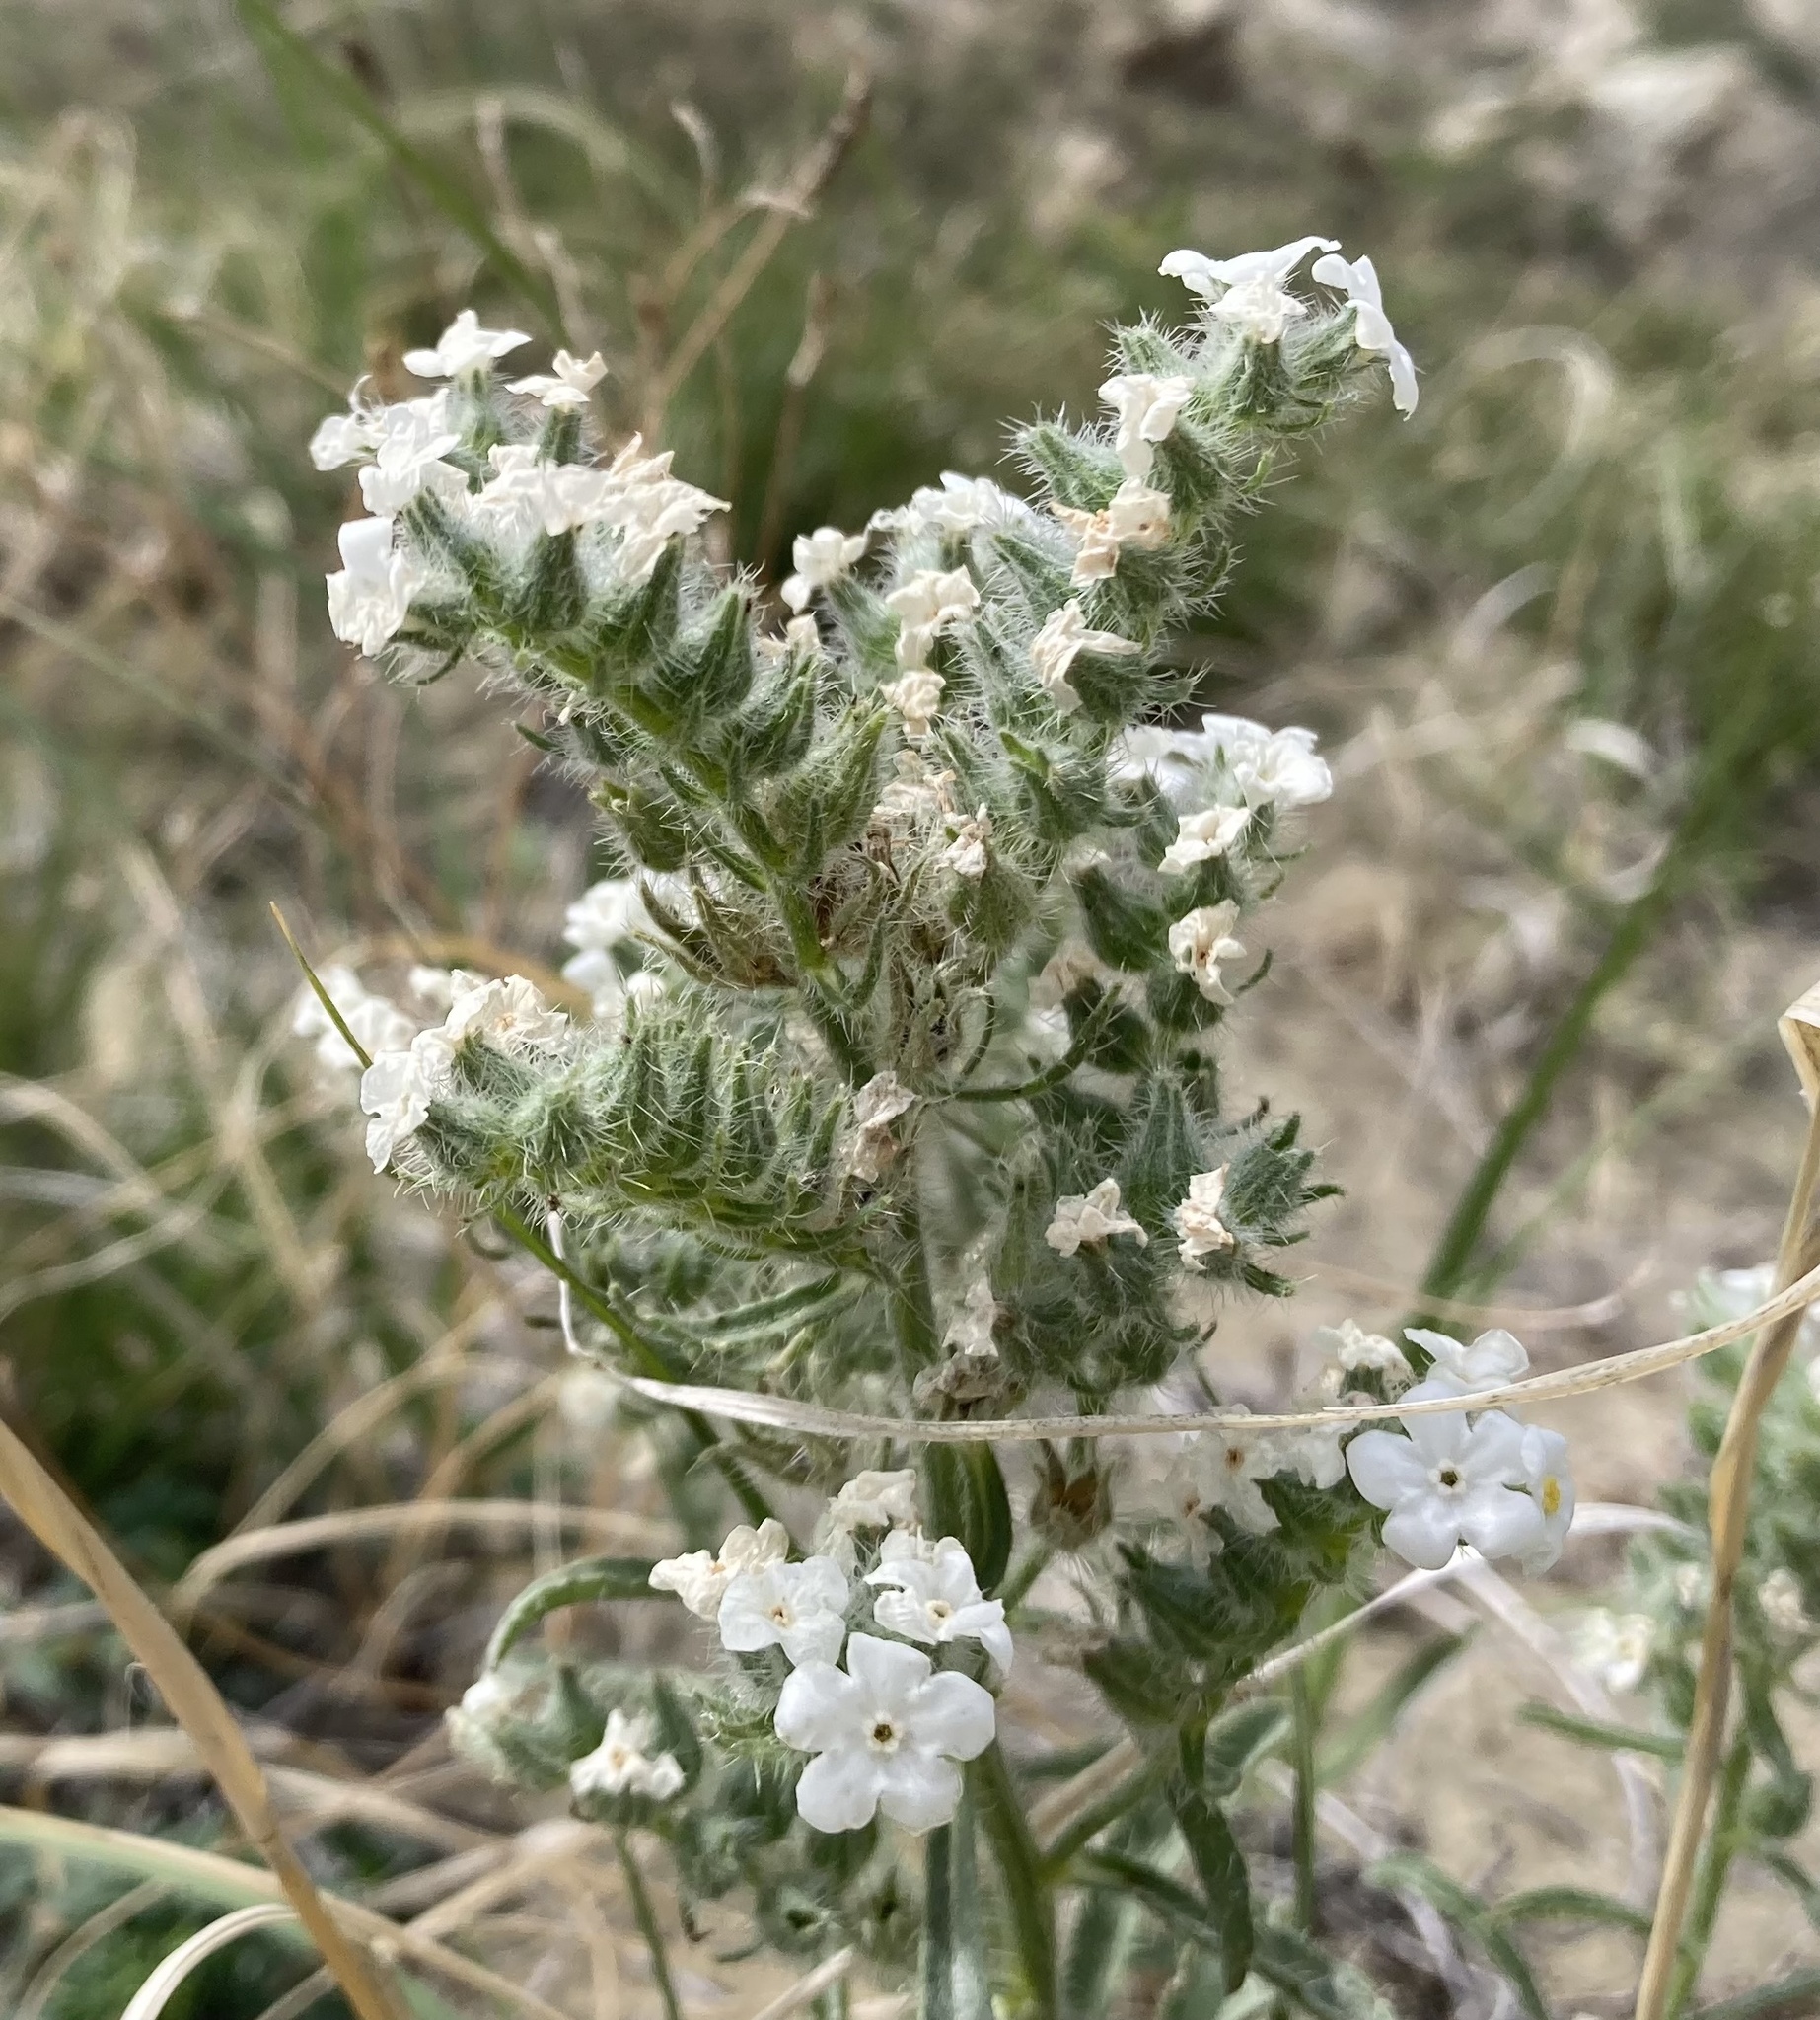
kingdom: Plantae
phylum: Tracheophyta
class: Magnoliopsida
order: Boraginales
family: Boraginaceae
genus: Oreocarya
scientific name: Oreocarya glomerata
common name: Macoun's cryptantha
